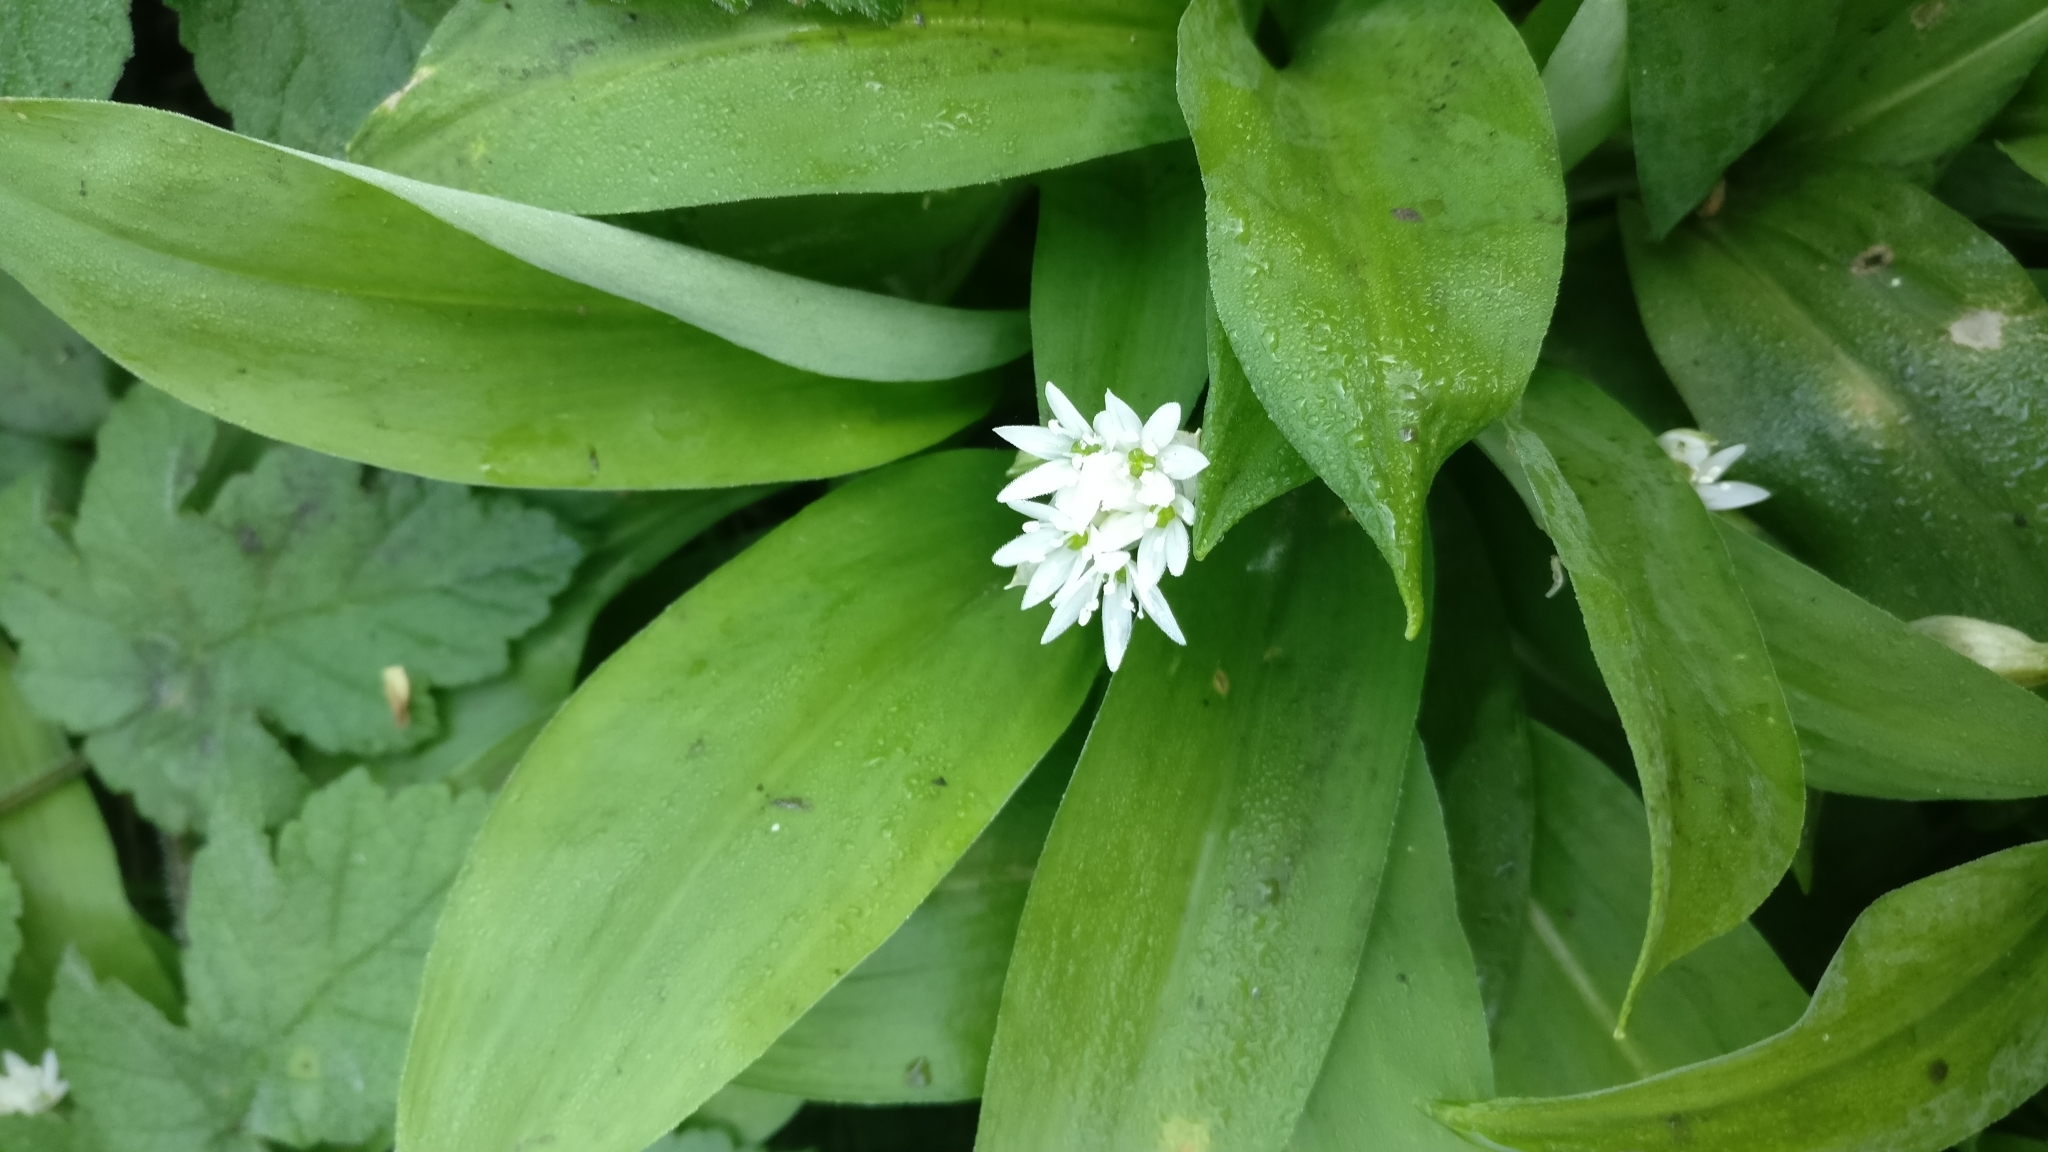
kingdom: Plantae
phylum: Tracheophyta
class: Liliopsida
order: Asparagales
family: Amaryllidaceae
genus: Allium
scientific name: Allium ursinum
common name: Ramsons
